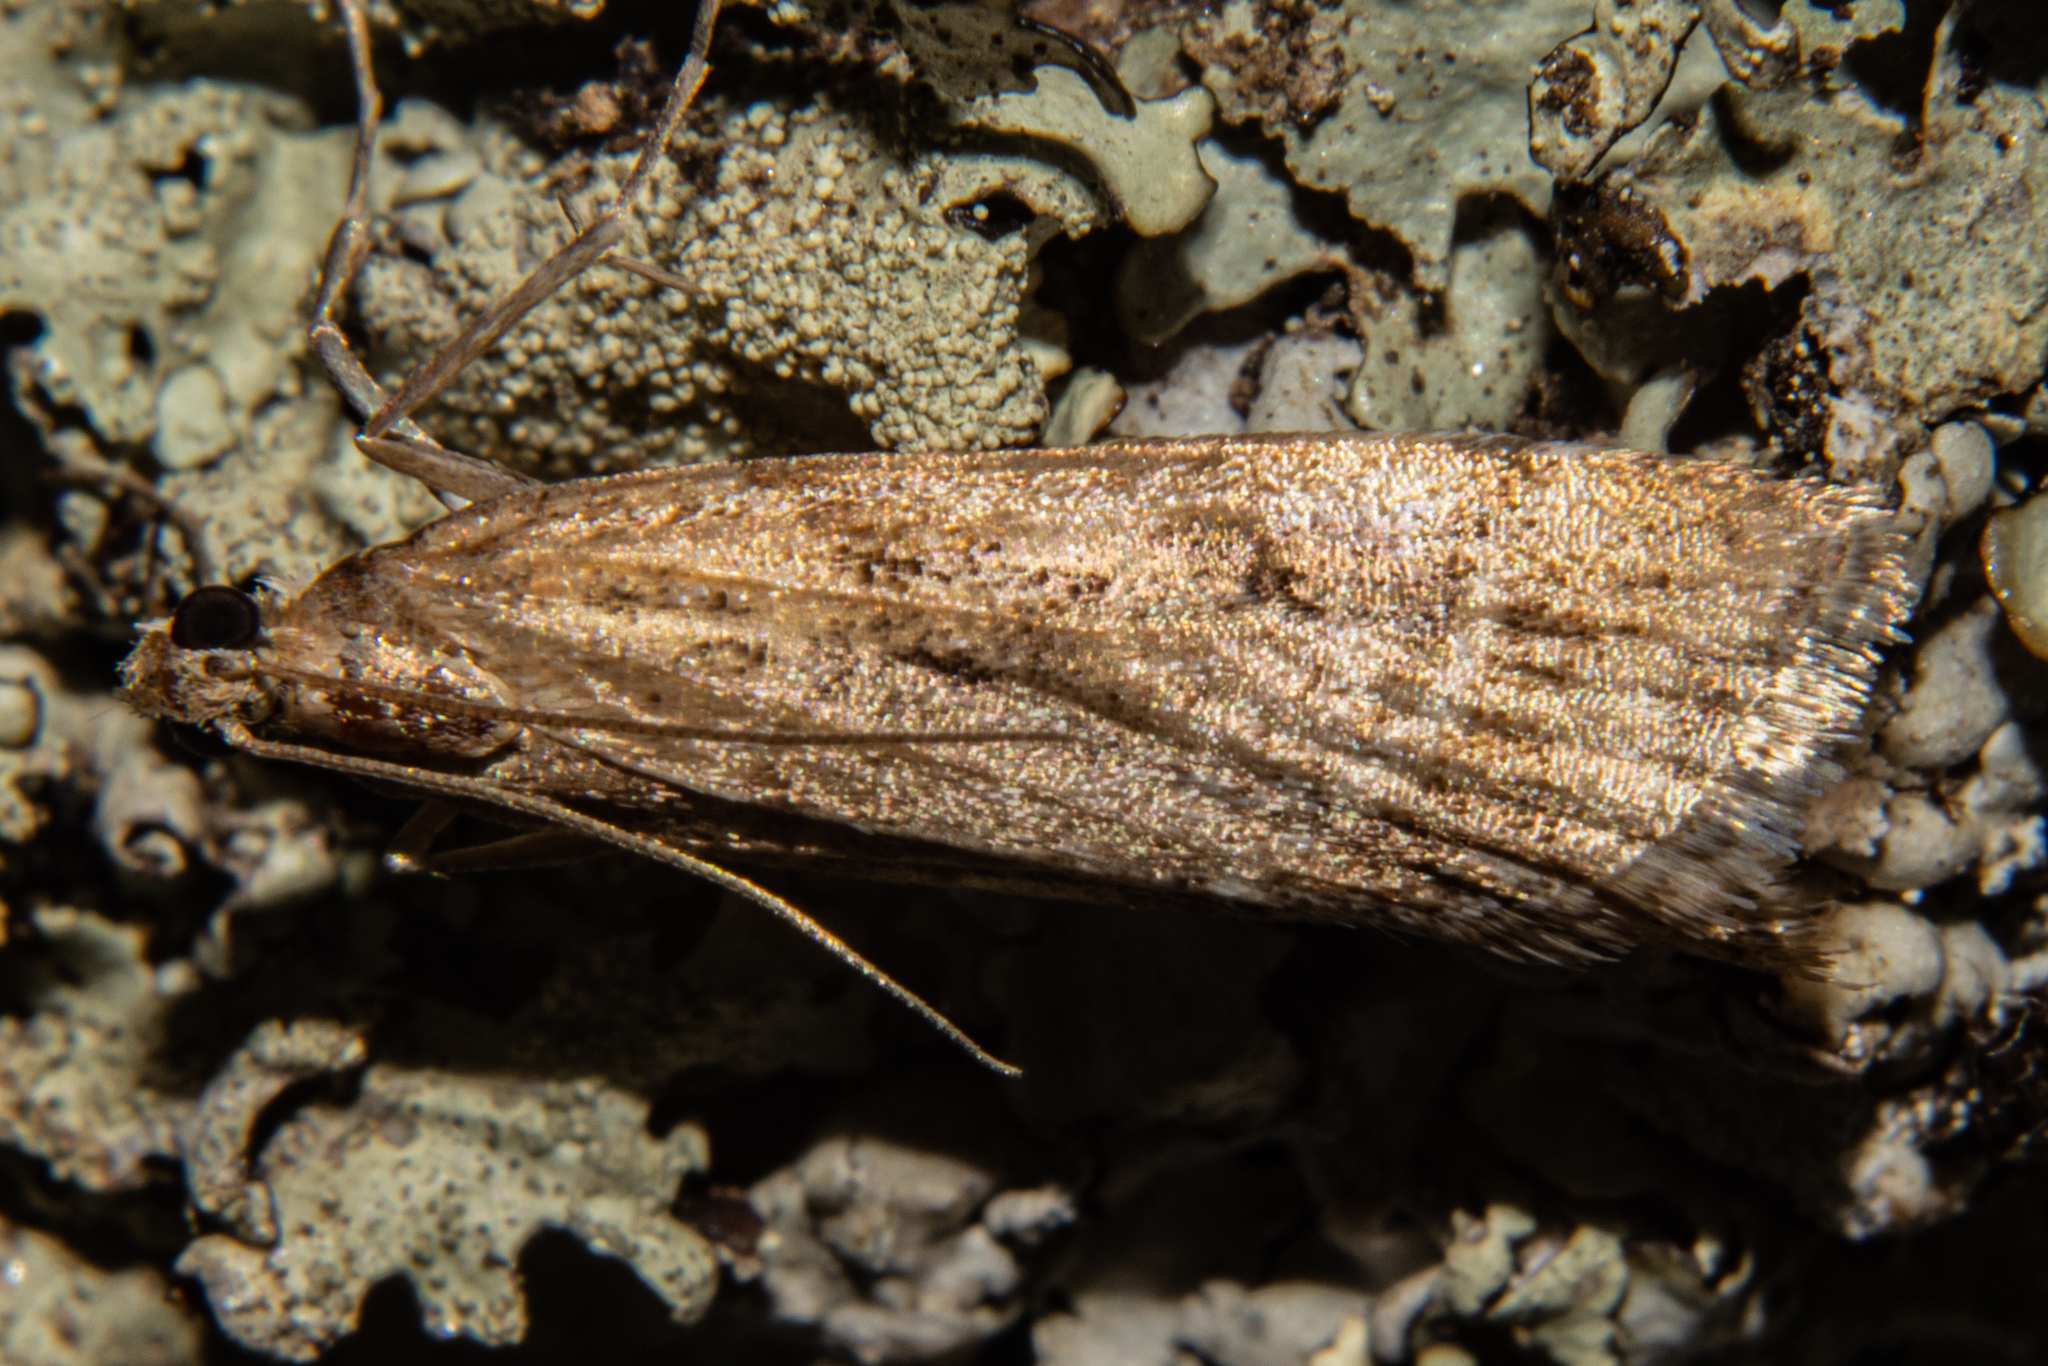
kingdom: Animalia
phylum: Arthropoda
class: Insecta
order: Lepidoptera
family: Crambidae
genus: Eudonia
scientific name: Eudonia chalara
